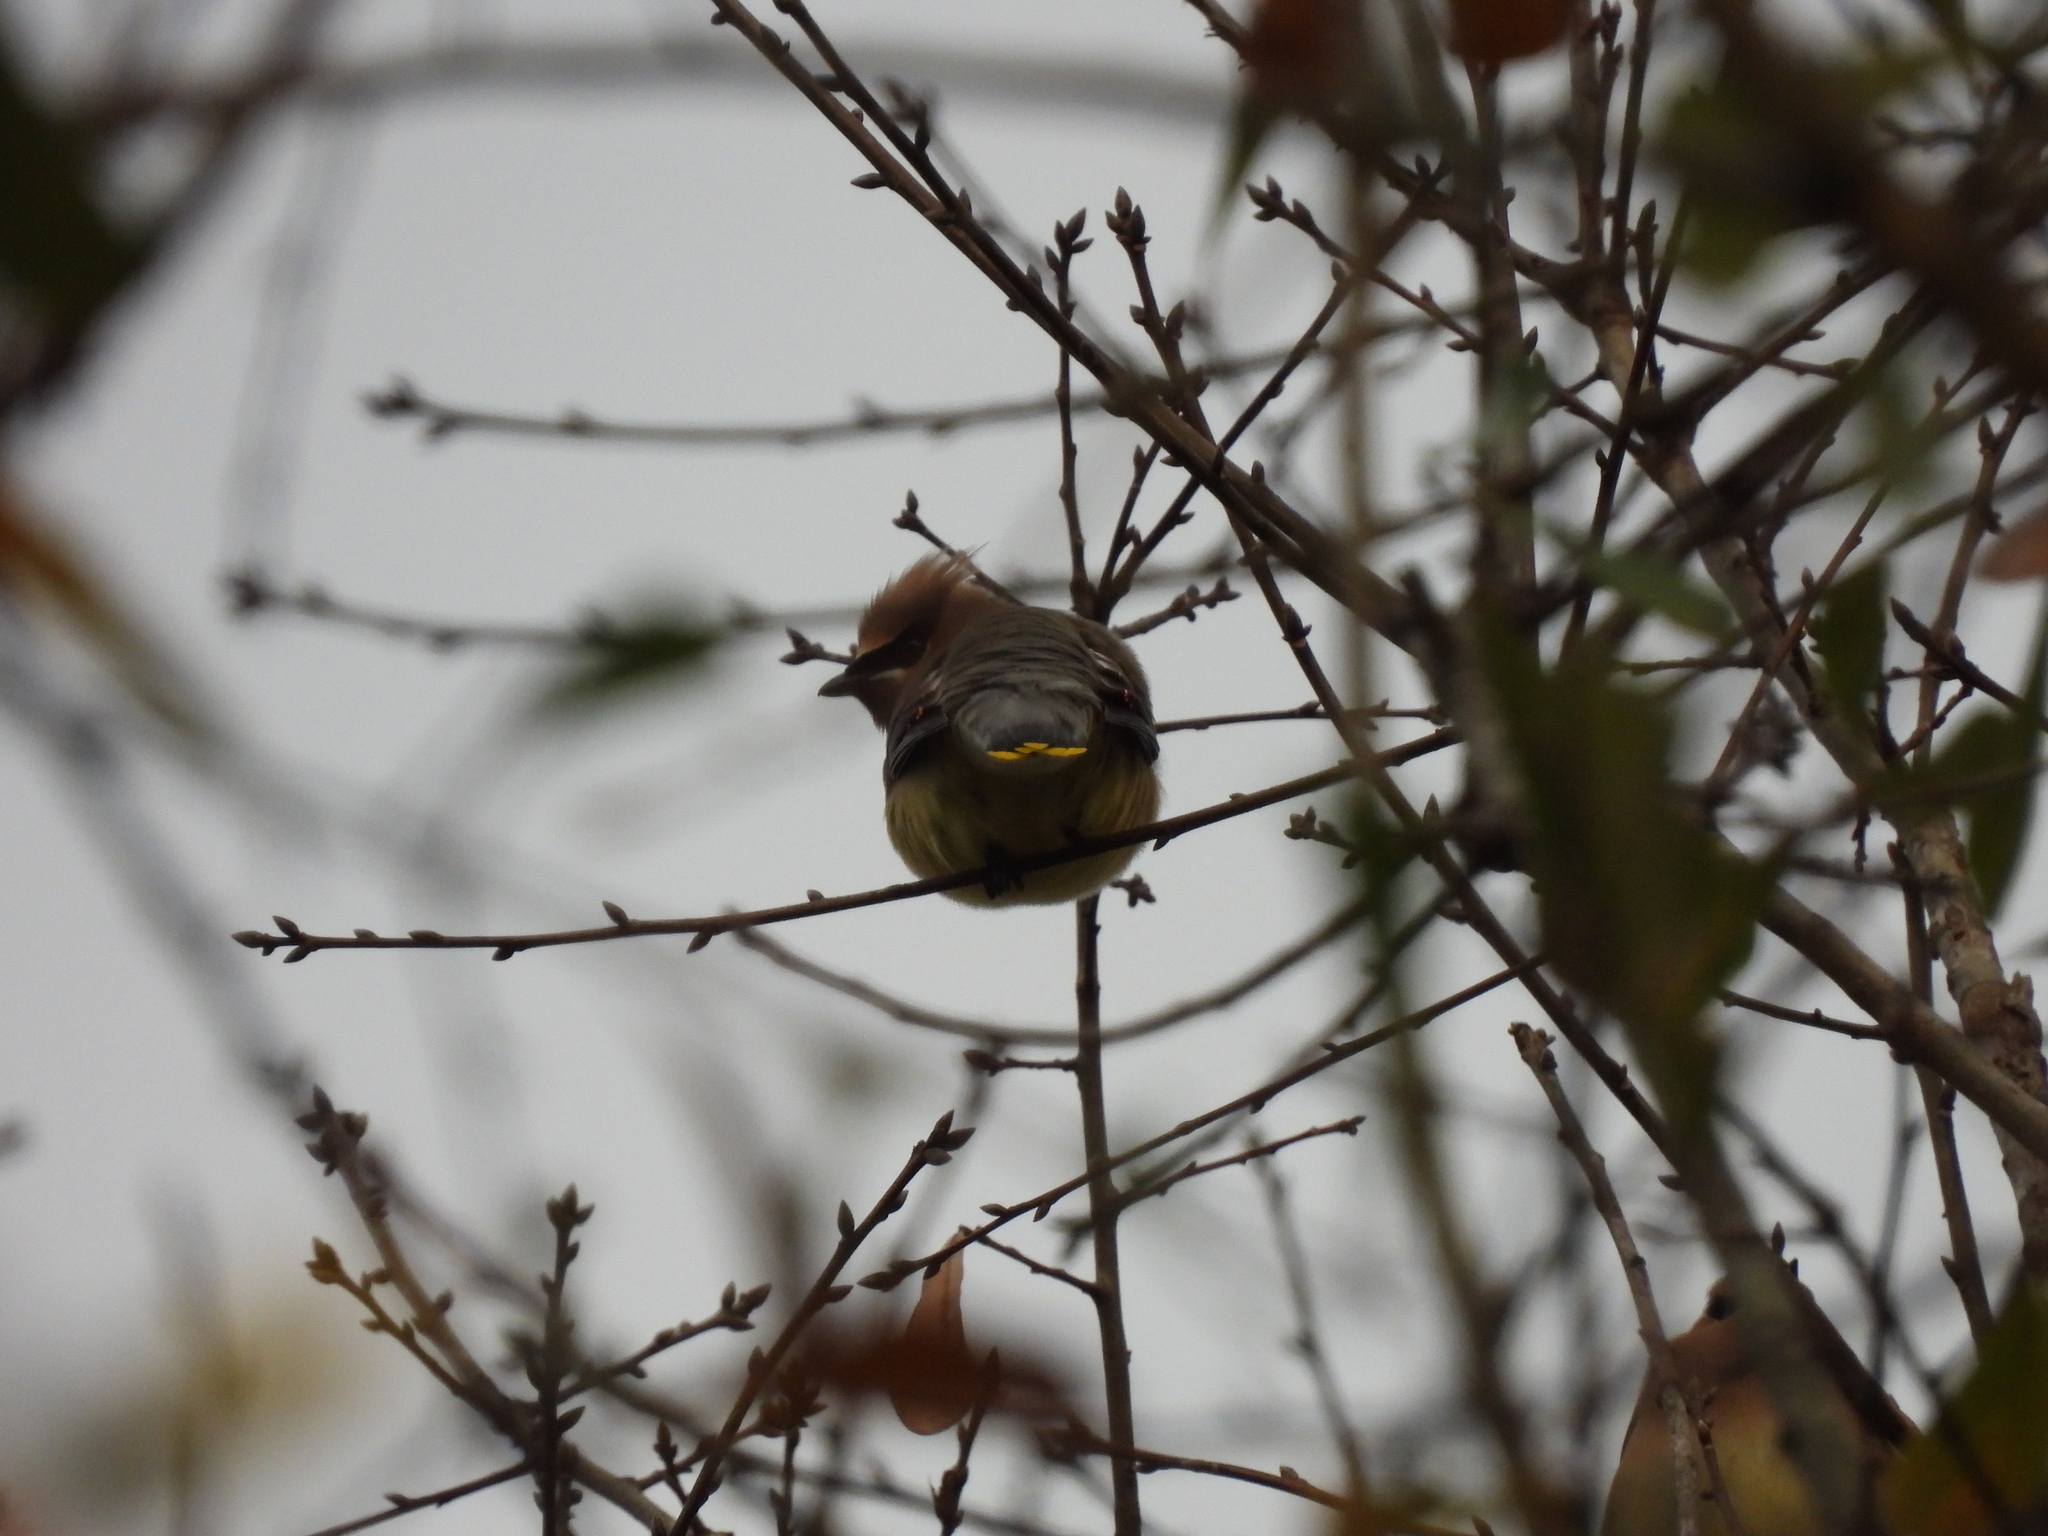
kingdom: Animalia
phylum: Chordata
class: Aves
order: Passeriformes
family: Bombycillidae
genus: Bombycilla
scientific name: Bombycilla cedrorum
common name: Cedar waxwing
